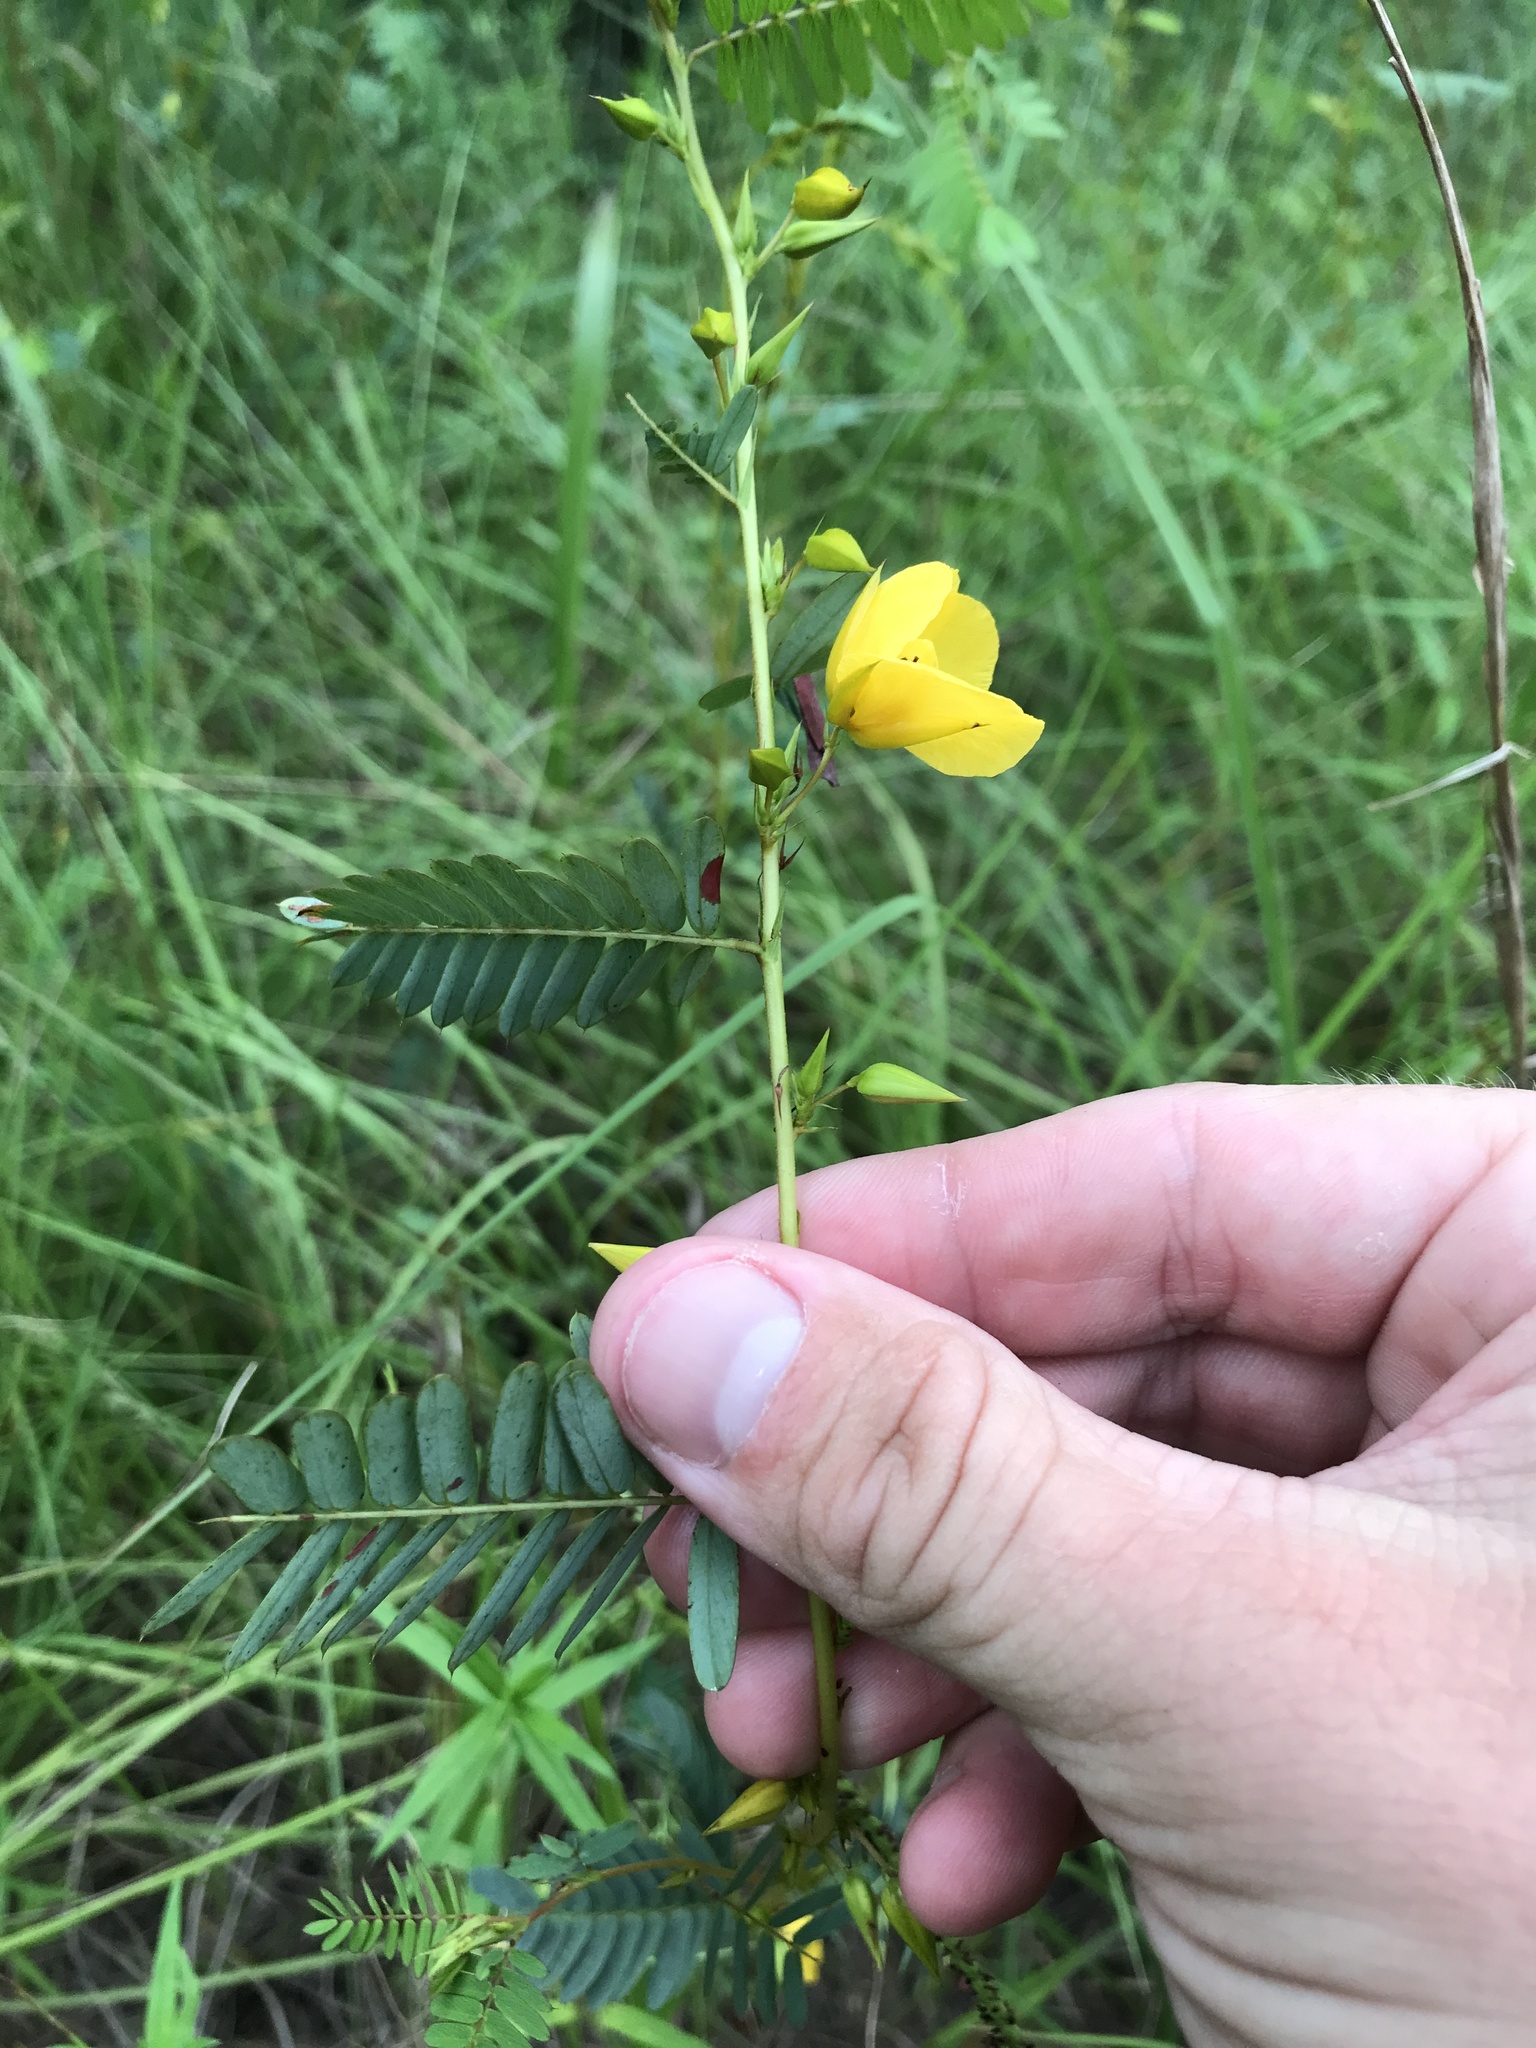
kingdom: Plantae
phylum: Tracheophyta
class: Magnoliopsida
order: Fabales
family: Fabaceae
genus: Chamaecrista
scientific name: Chamaecrista fasciculata
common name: Golden cassia
